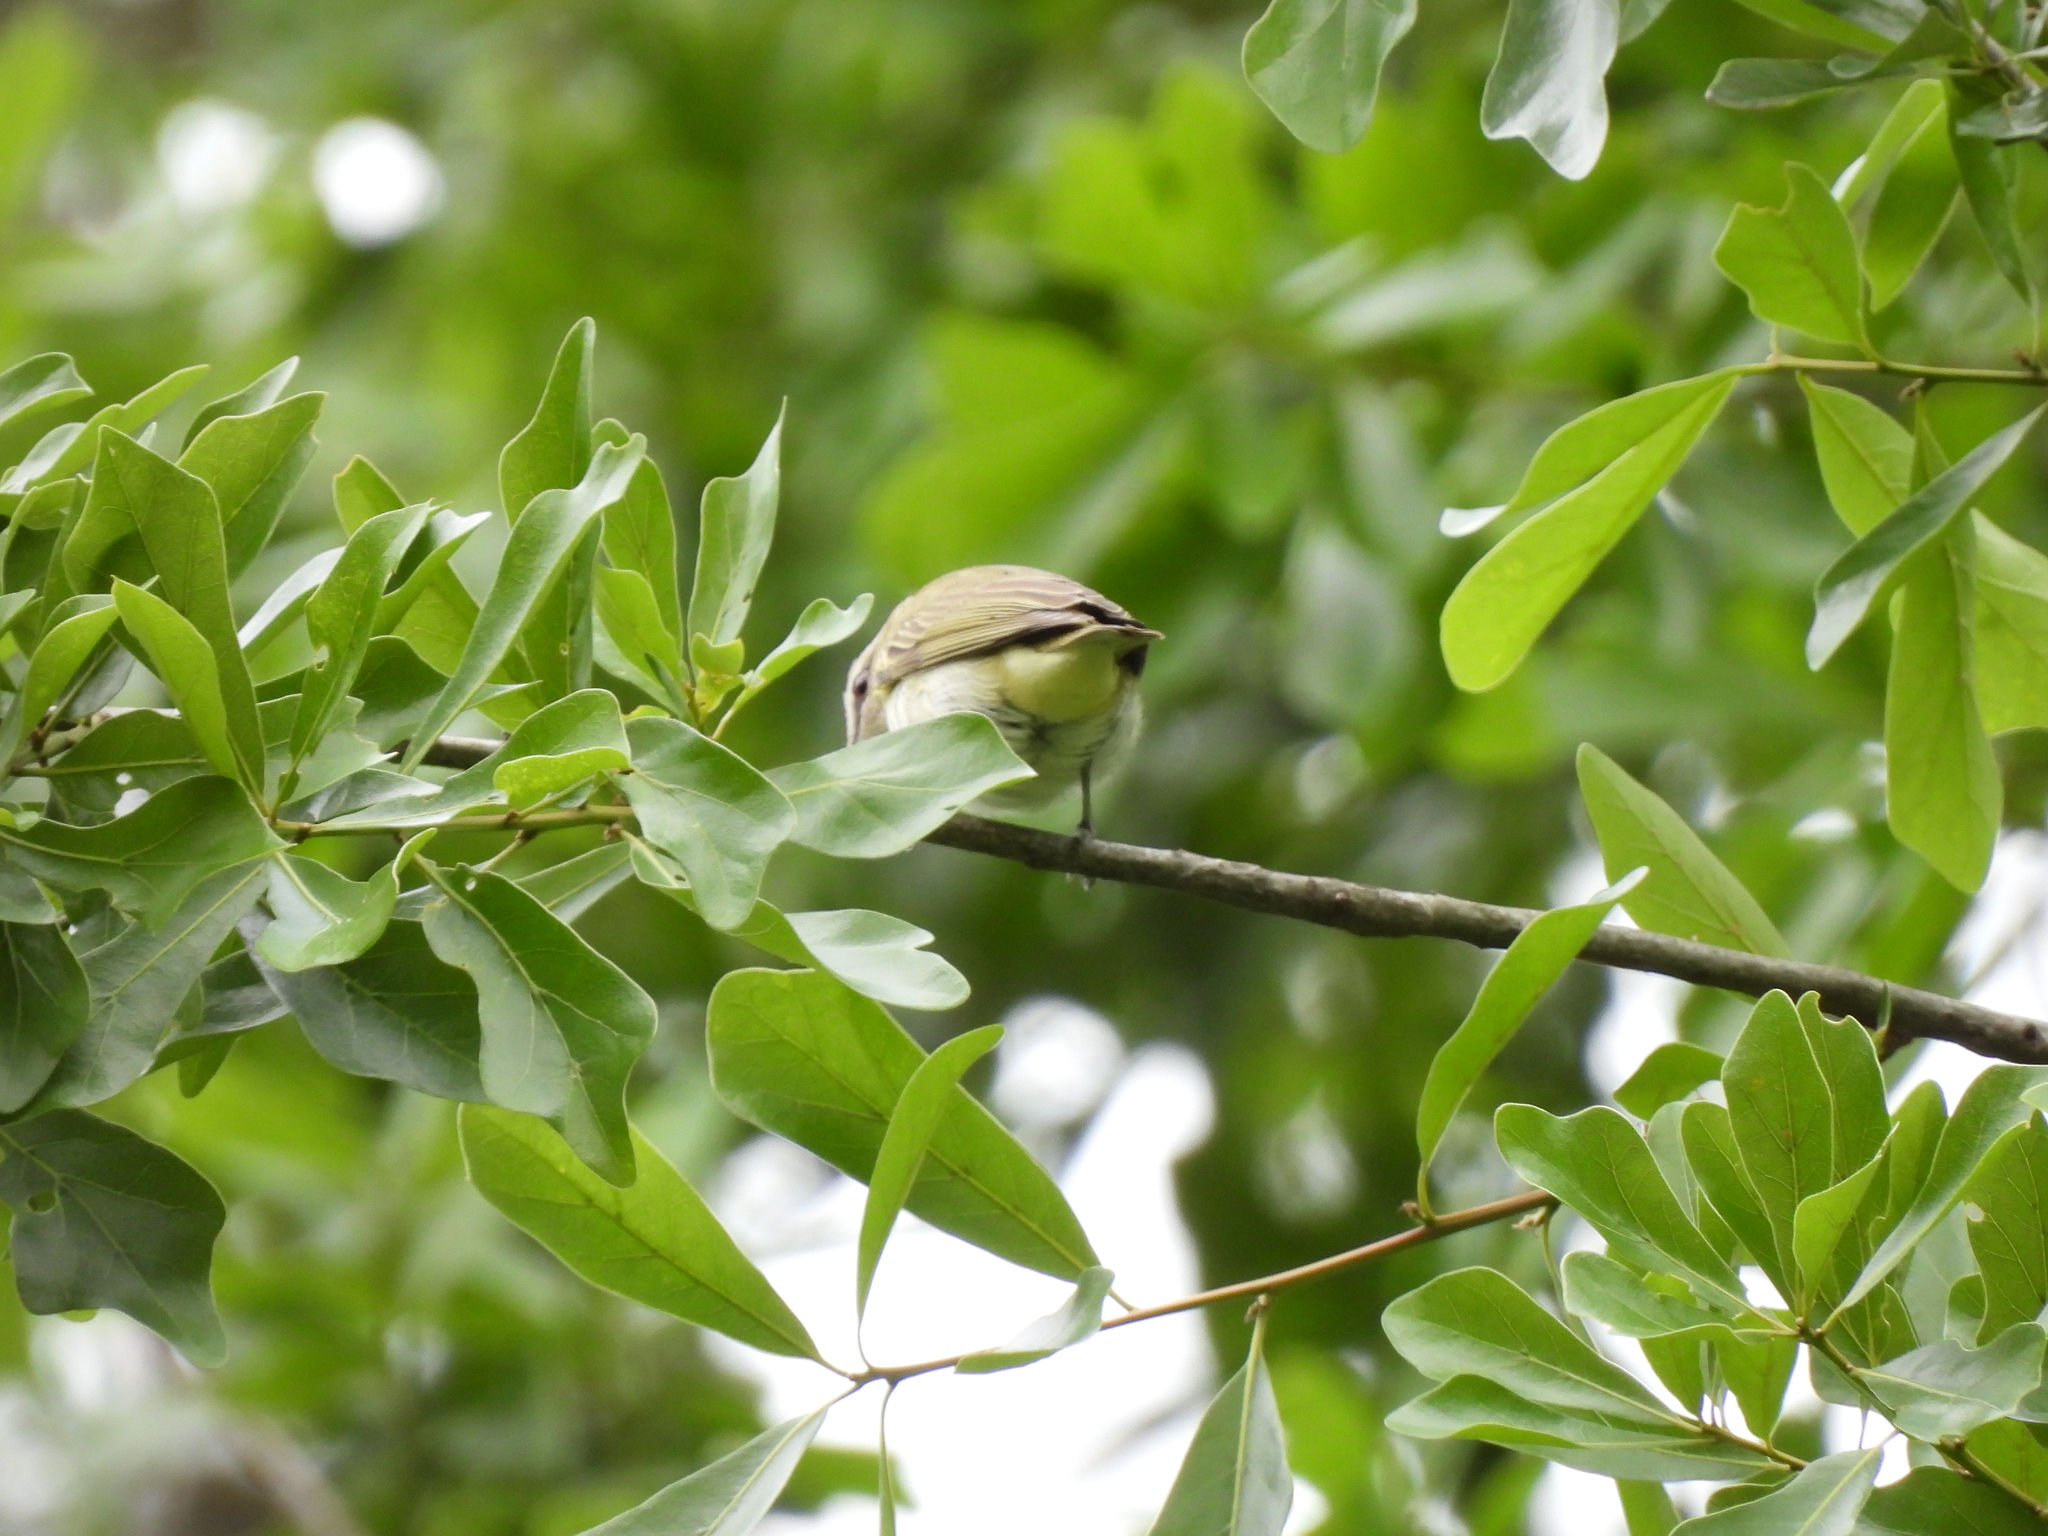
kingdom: Animalia
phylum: Chordata
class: Aves
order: Passeriformes
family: Vireonidae
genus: Vireo
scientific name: Vireo olivaceus
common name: Red-eyed vireo
